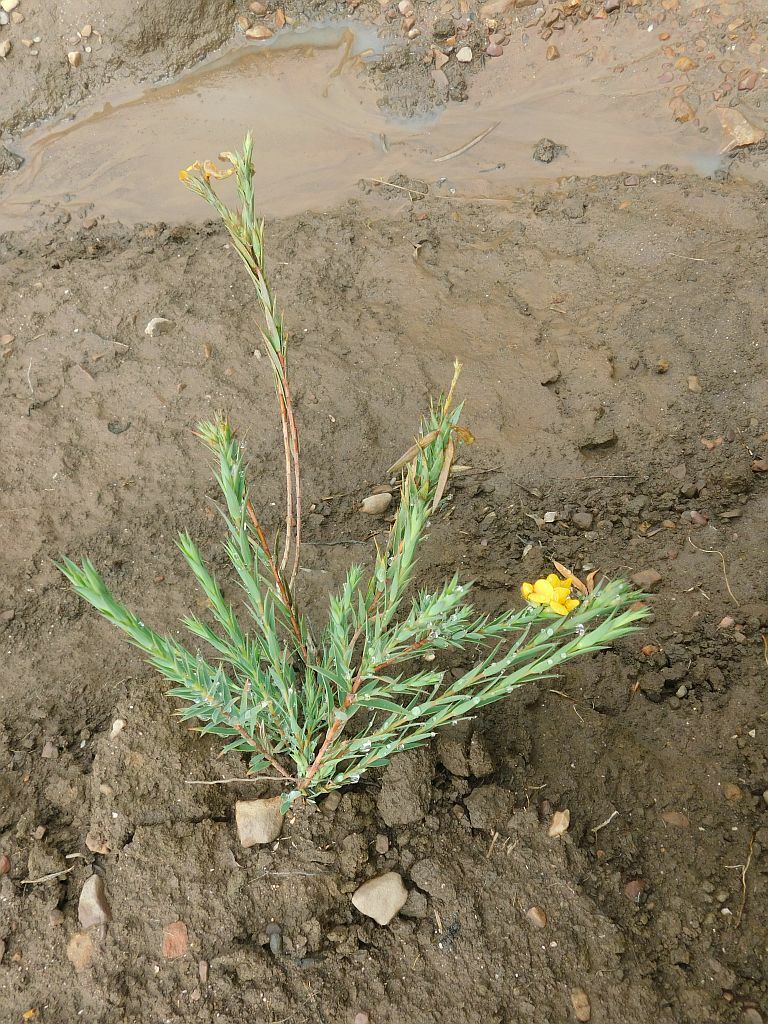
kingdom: Plantae
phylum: Tracheophyta
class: Magnoliopsida
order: Fabales
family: Fabaceae
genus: Aspalathus
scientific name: Aspalathus angustifolia
